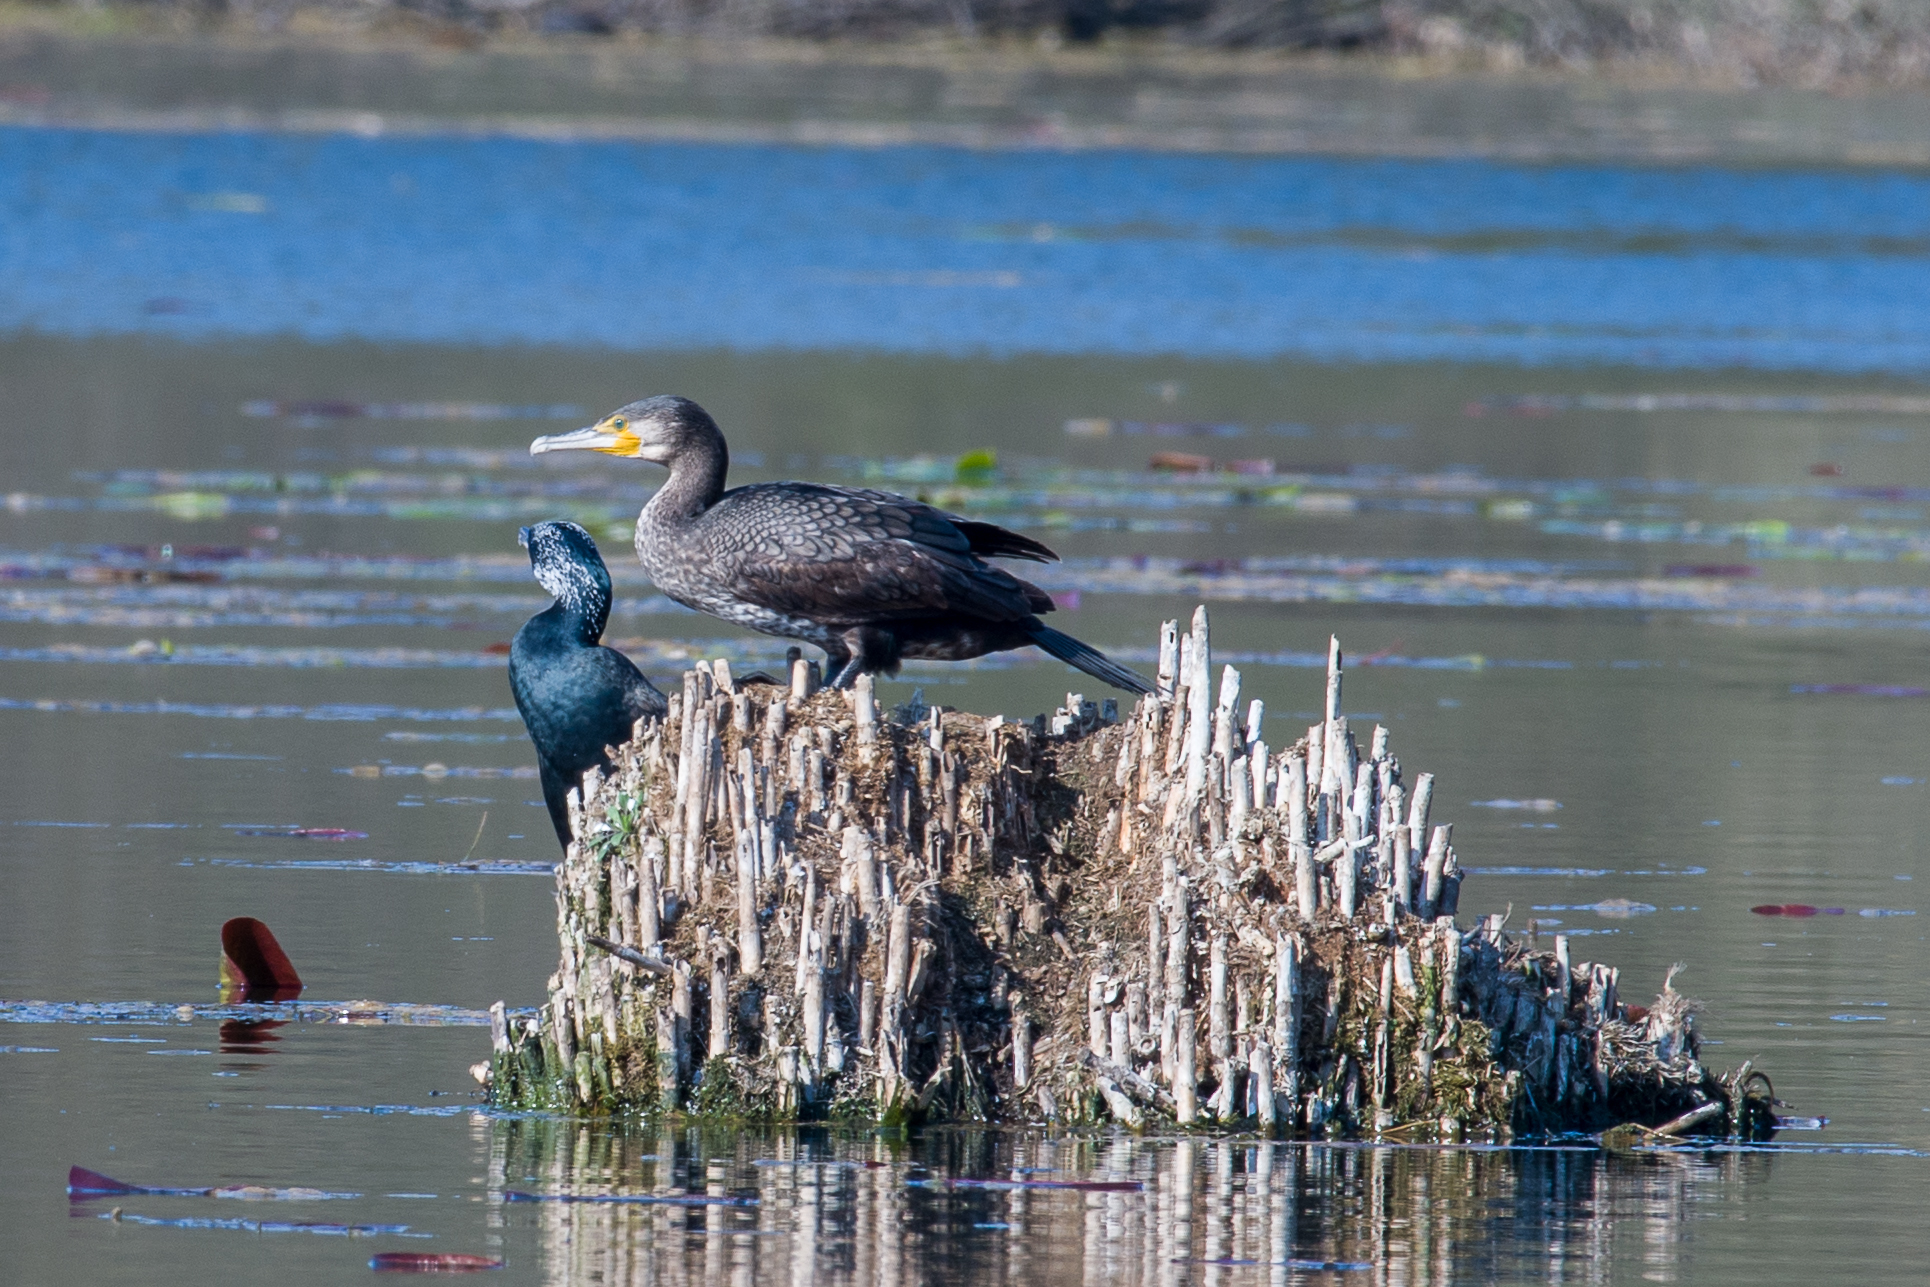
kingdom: Animalia
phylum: Chordata
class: Aves
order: Suliformes
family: Phalacrocoracidae
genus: Phalacrocorax
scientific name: Phalacrocorax carbo
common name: Great cormorant
